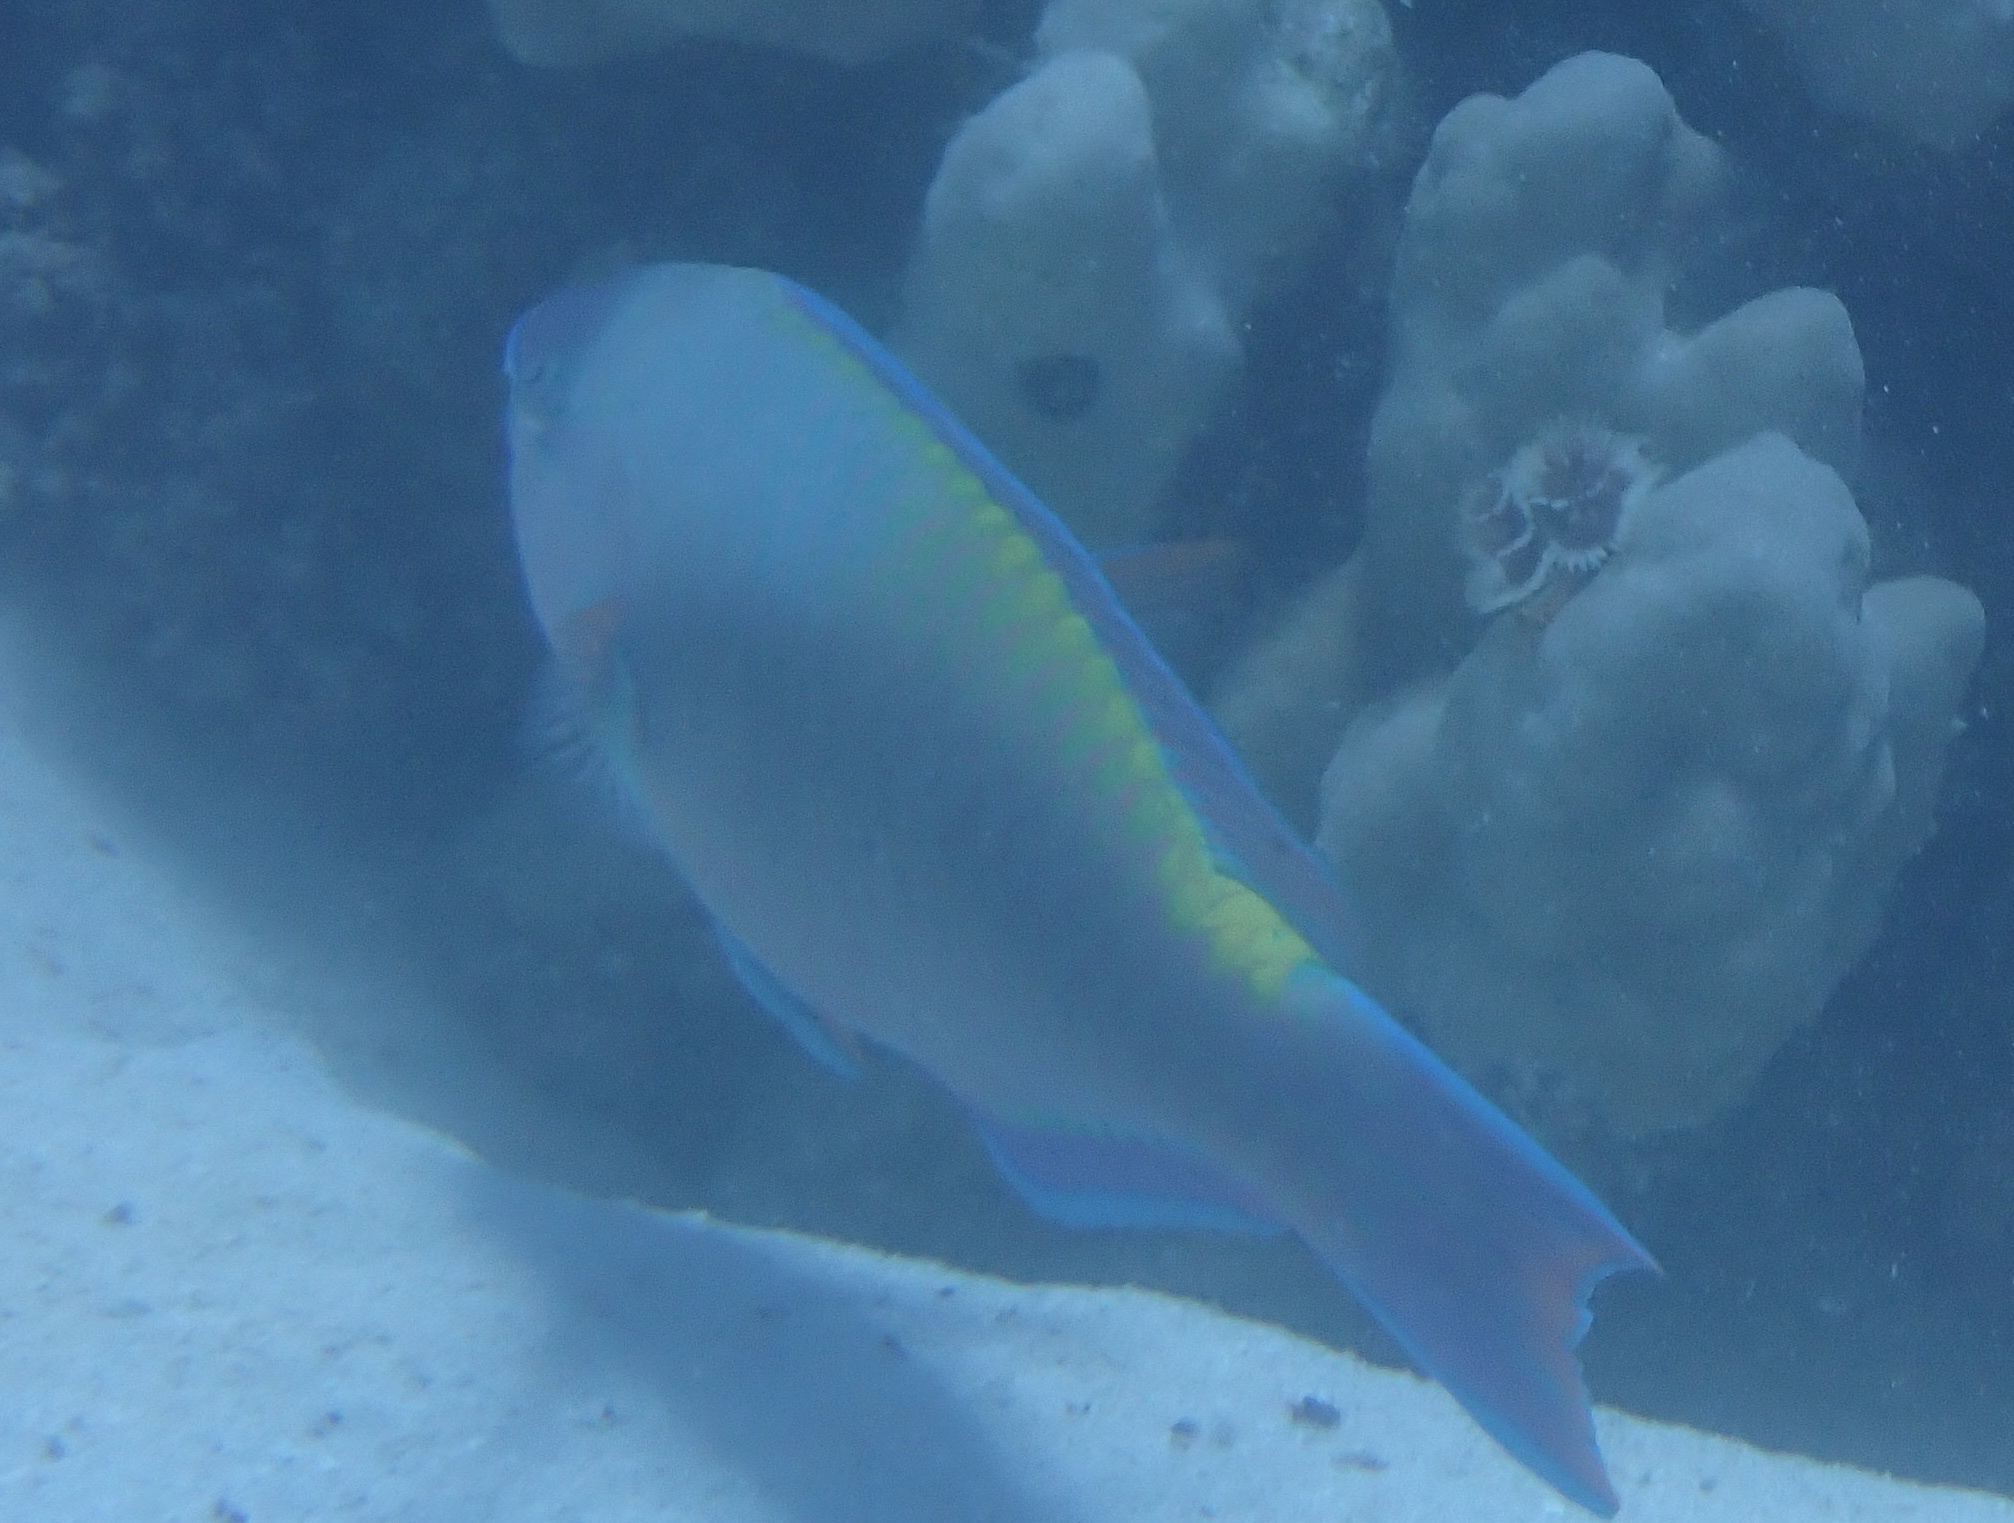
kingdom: Animalia
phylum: Chordata
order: Perciformes
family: Scaridae
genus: Scarus
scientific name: Scarus psittacus
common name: Palenose parrotfish
